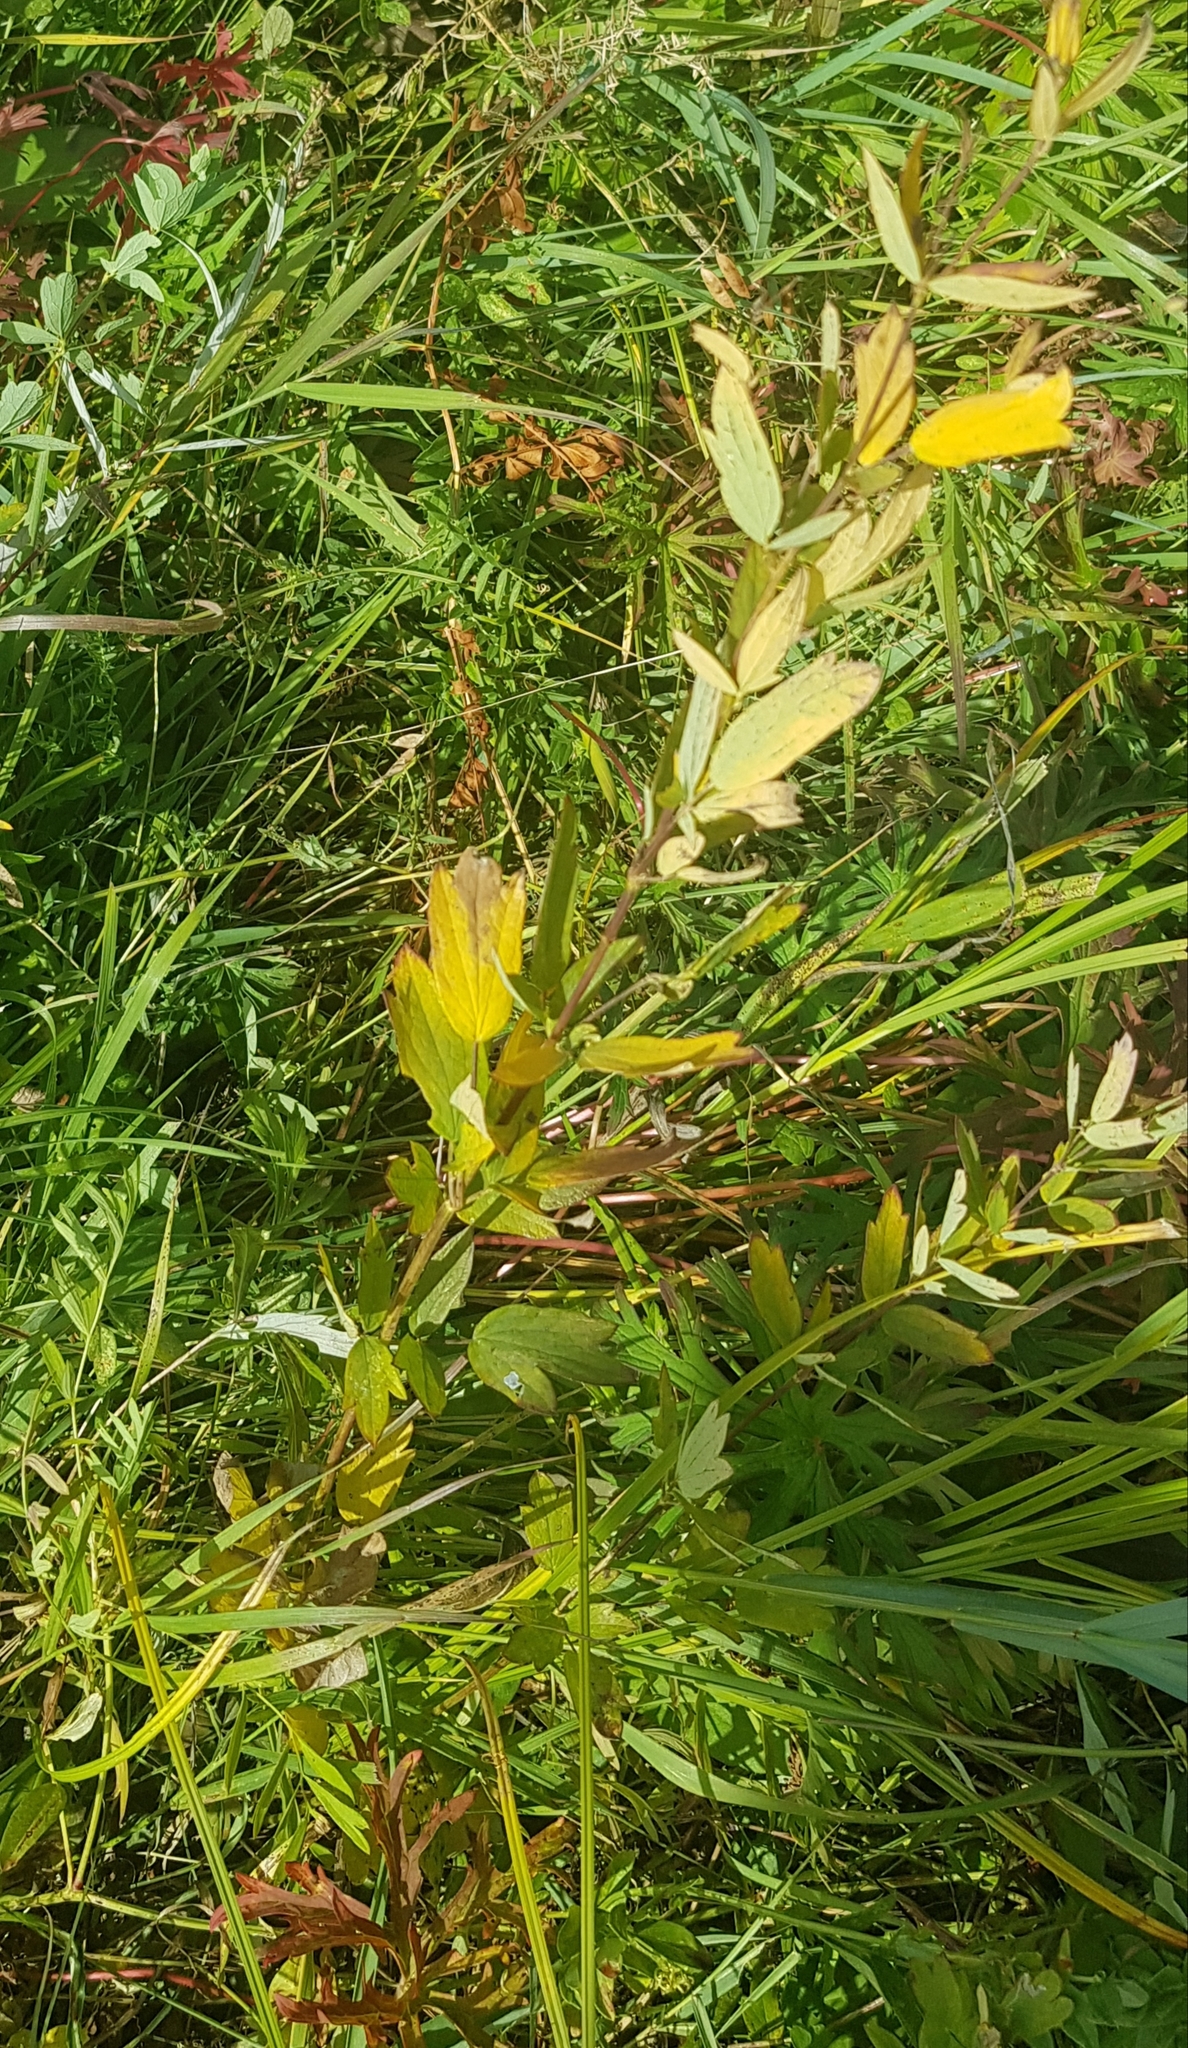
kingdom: Plantae
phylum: Tracheophyta
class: Magnoliopsida
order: Ranunculales
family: Ranunculaceae
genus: Thalictrum
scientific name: Thalictrum simplex
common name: Small meadow-rue
